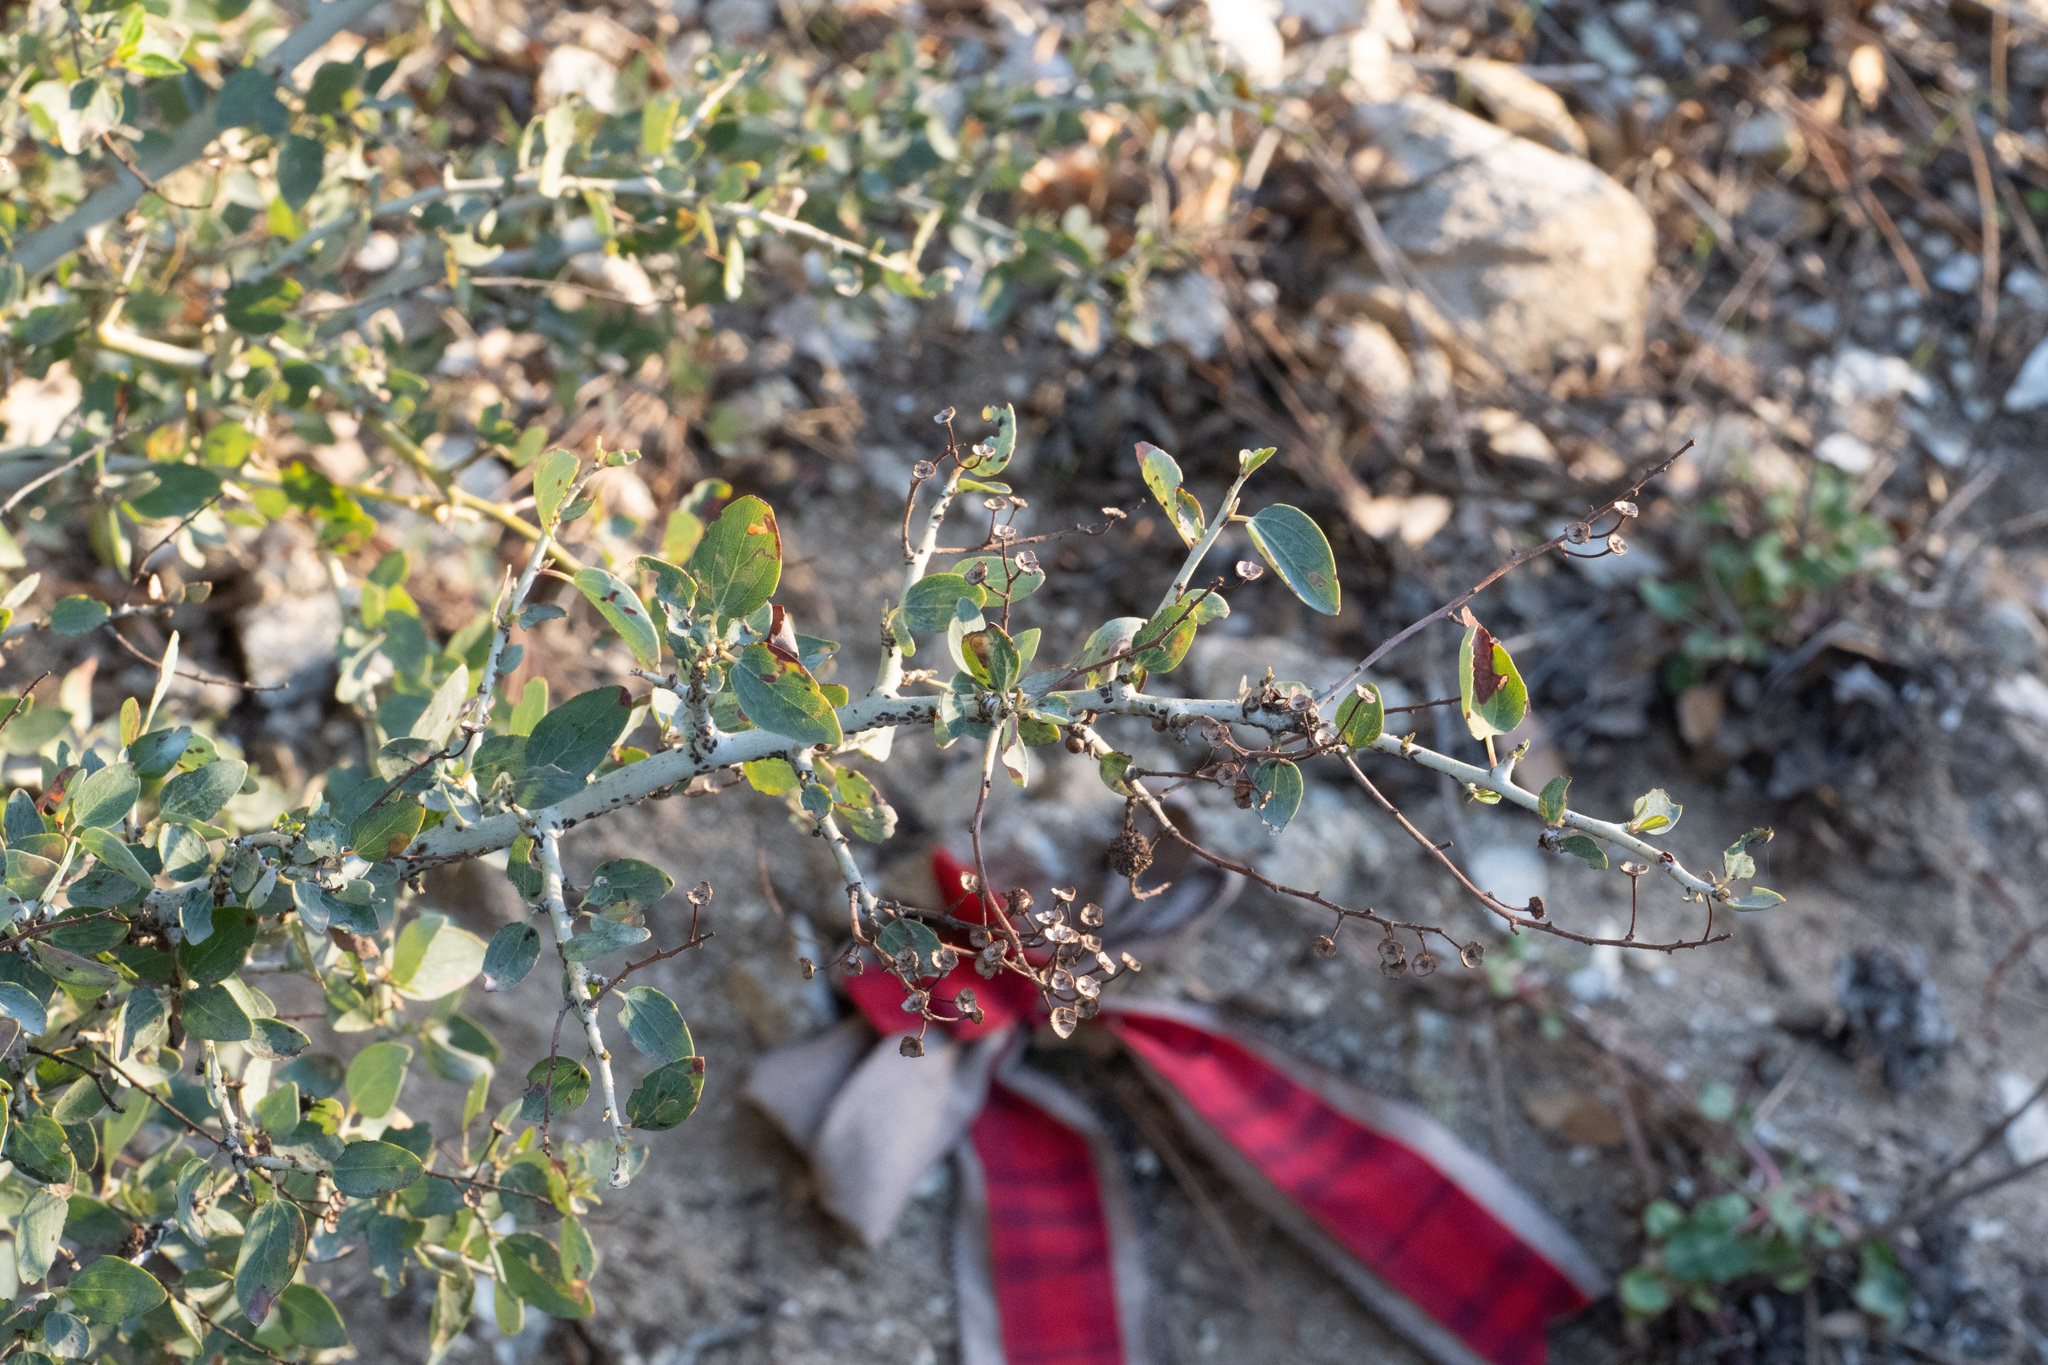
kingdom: Plantae
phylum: Tracheophyta
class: Magnoliopsida
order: Rosales
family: Rhamnaceae
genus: Ceanothus
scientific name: Ceanothus leucodermis
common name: Chaparral whitethorn
